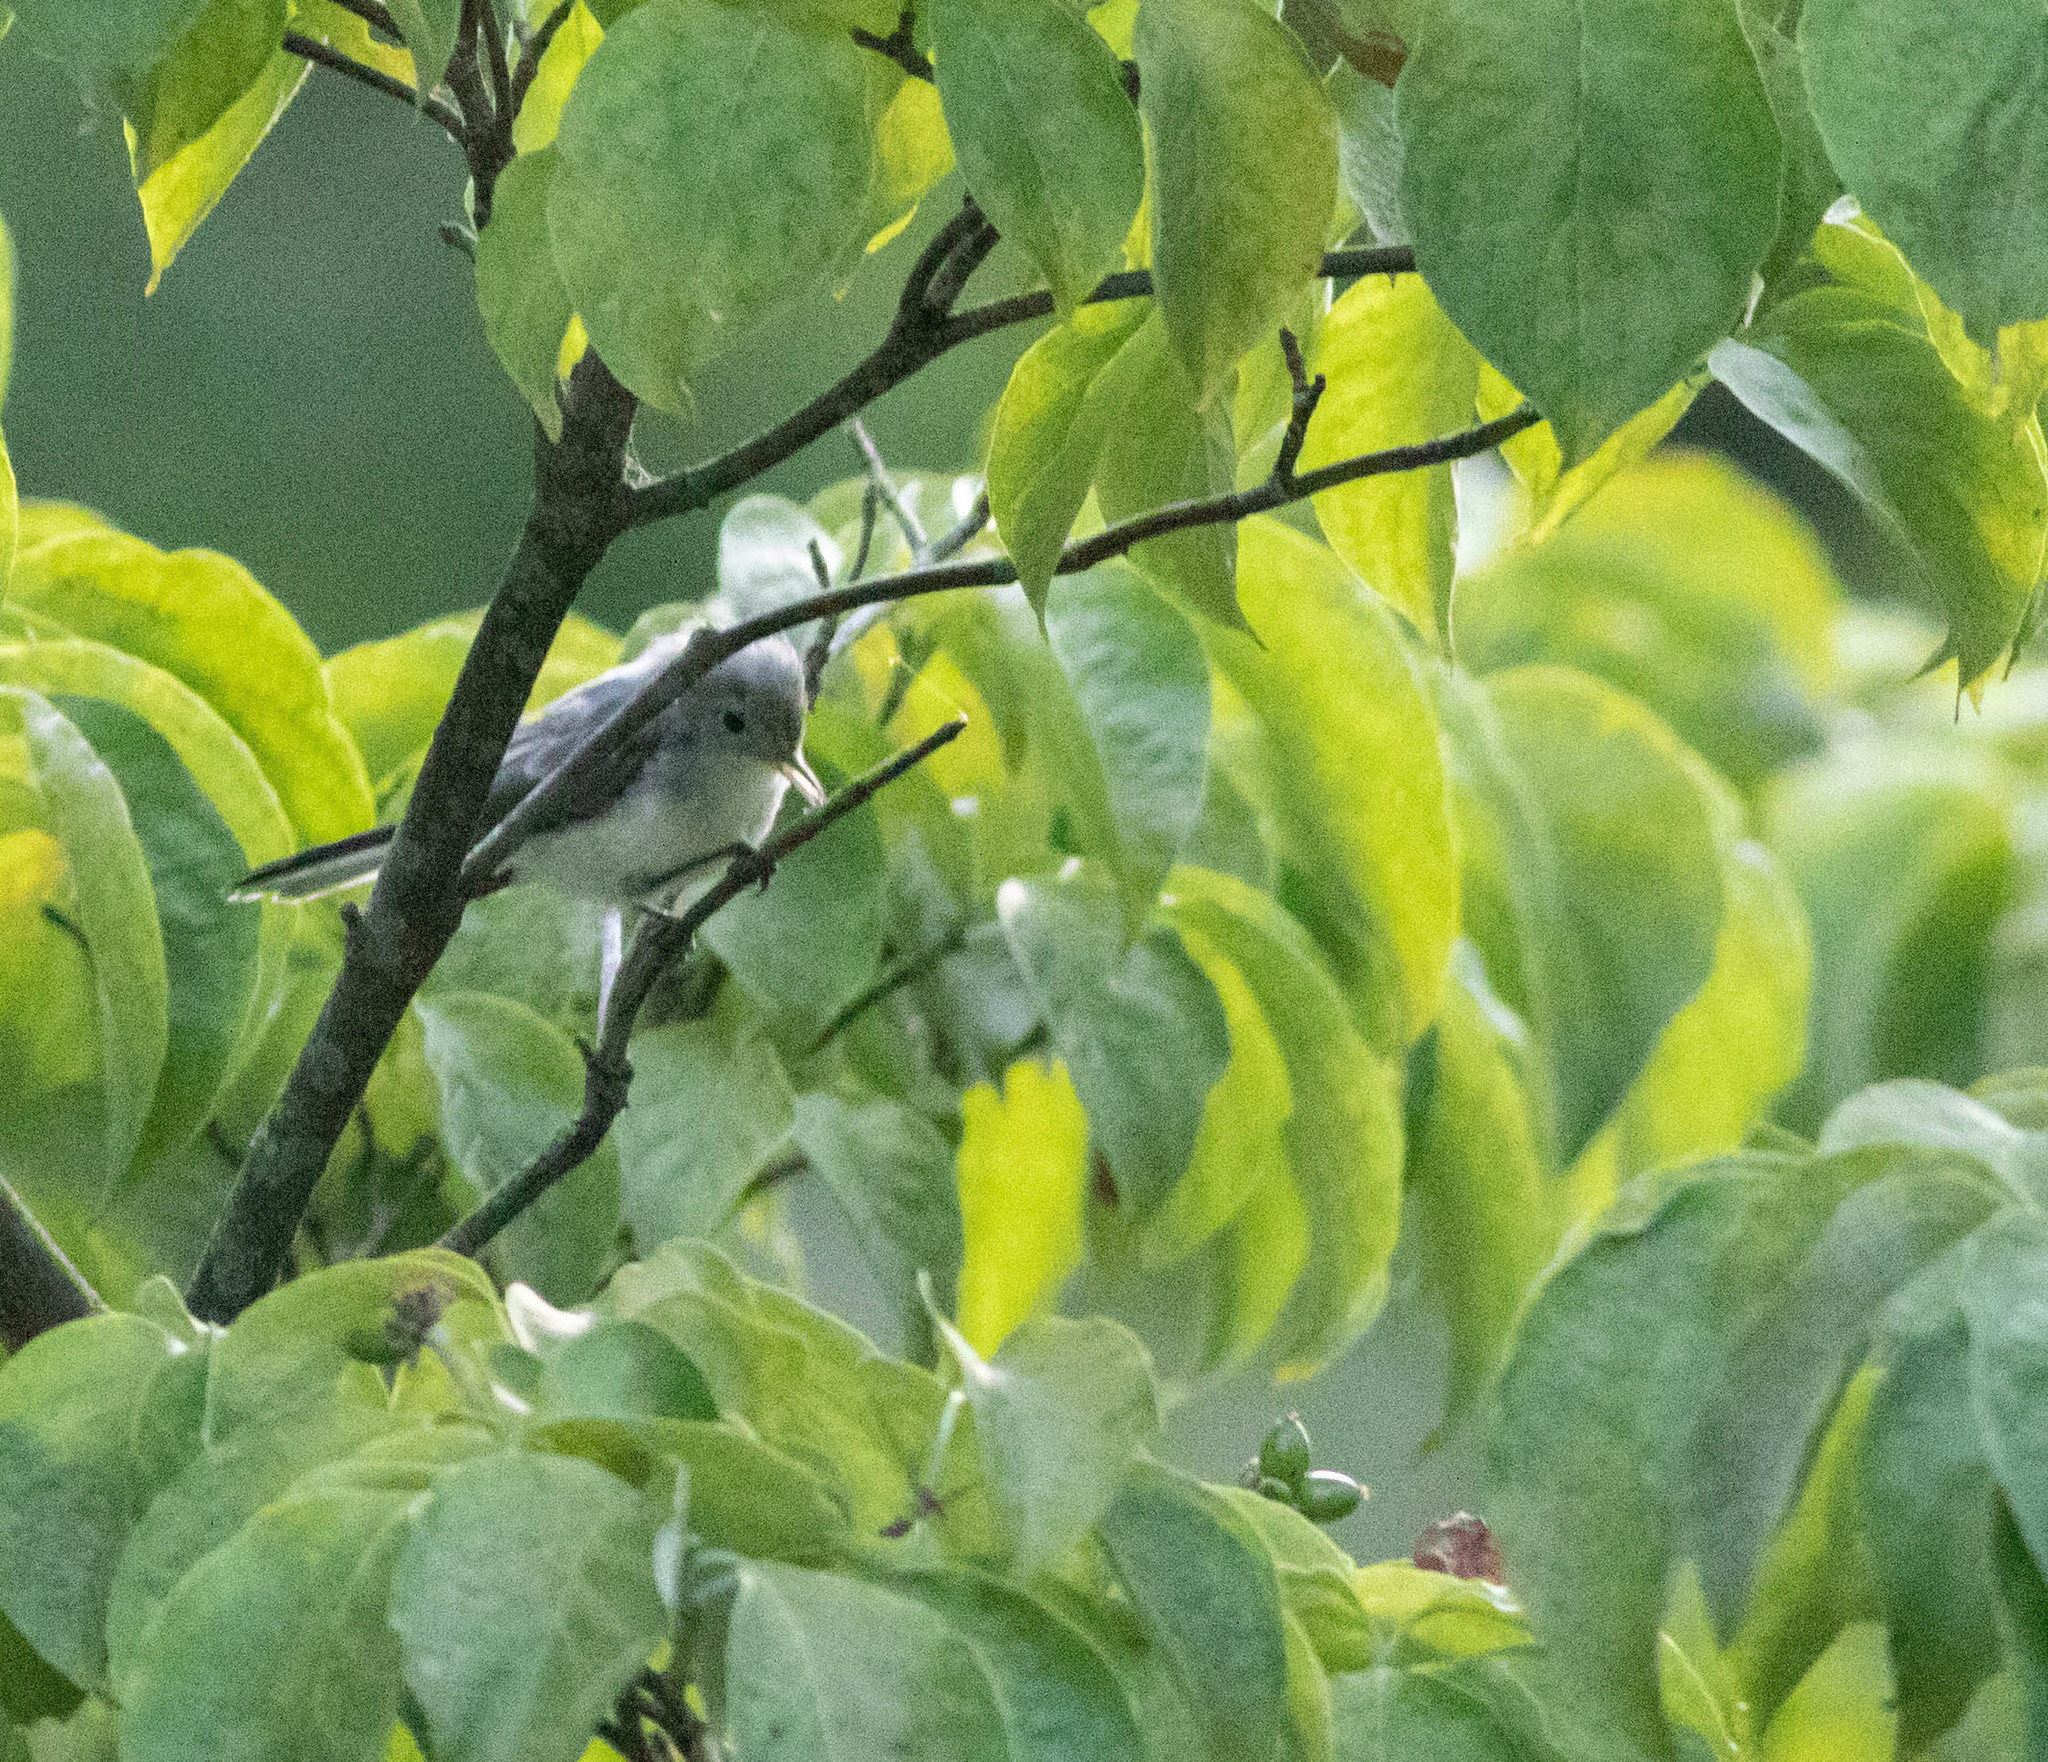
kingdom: Animalia
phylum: Chordata
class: Aves
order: Passeriformes
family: Polioptilidae
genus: Polioptila
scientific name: Polioptila caerulea
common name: Blue-gray gnatcatcher
